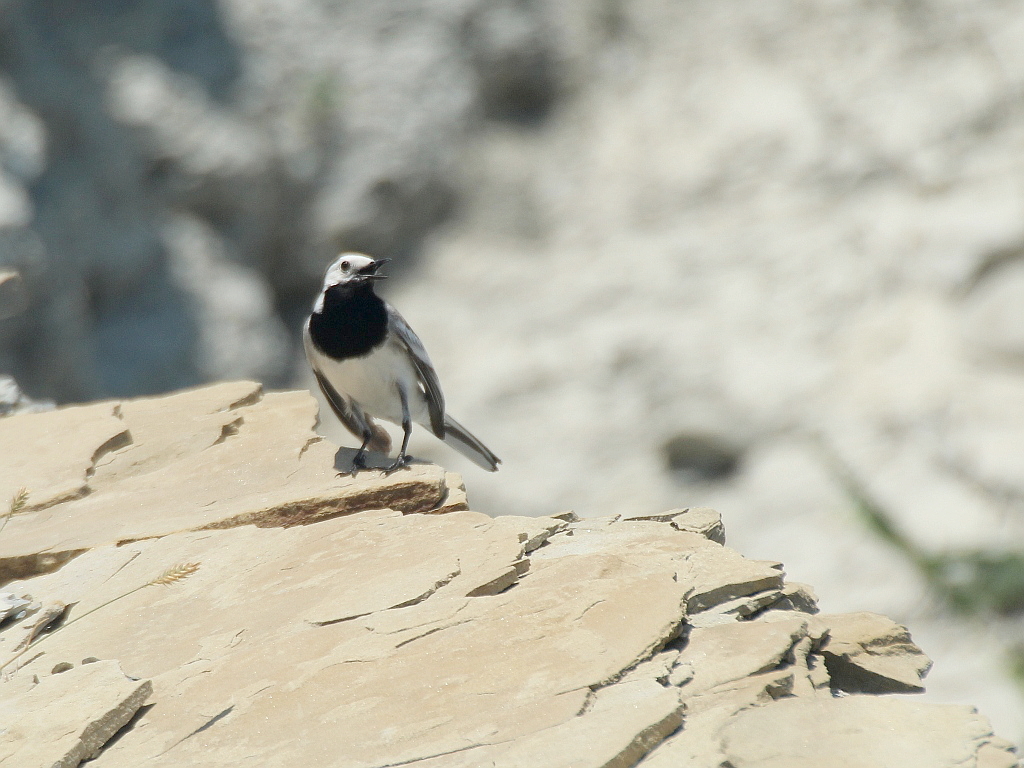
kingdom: Animalia
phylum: Chordata
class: Aves
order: Passeriformes
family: Motacillidae
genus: Motacilla
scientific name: Motacilla alba
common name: White wagtail
